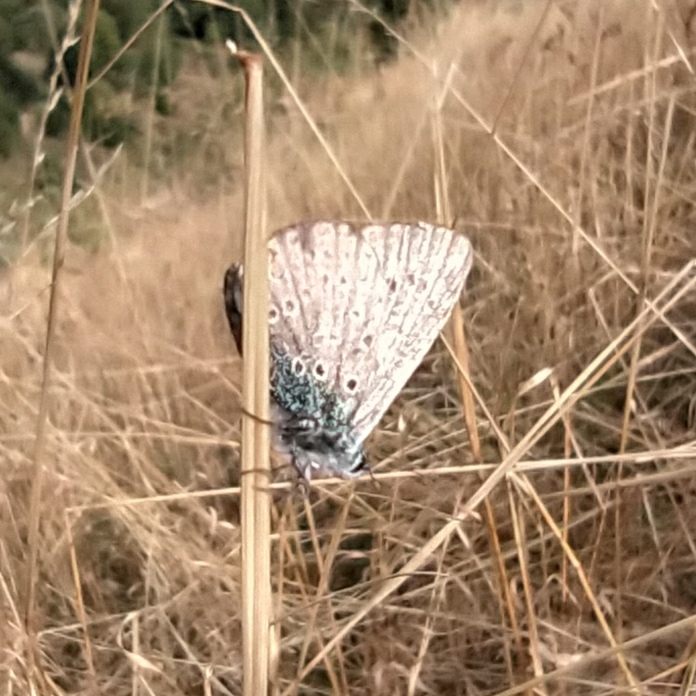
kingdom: Animalia
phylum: Arthropoda
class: Insecta
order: Lepidoptera
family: Lycaenidae
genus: Polyommatus
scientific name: Polyommatus icarus
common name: Common blue
